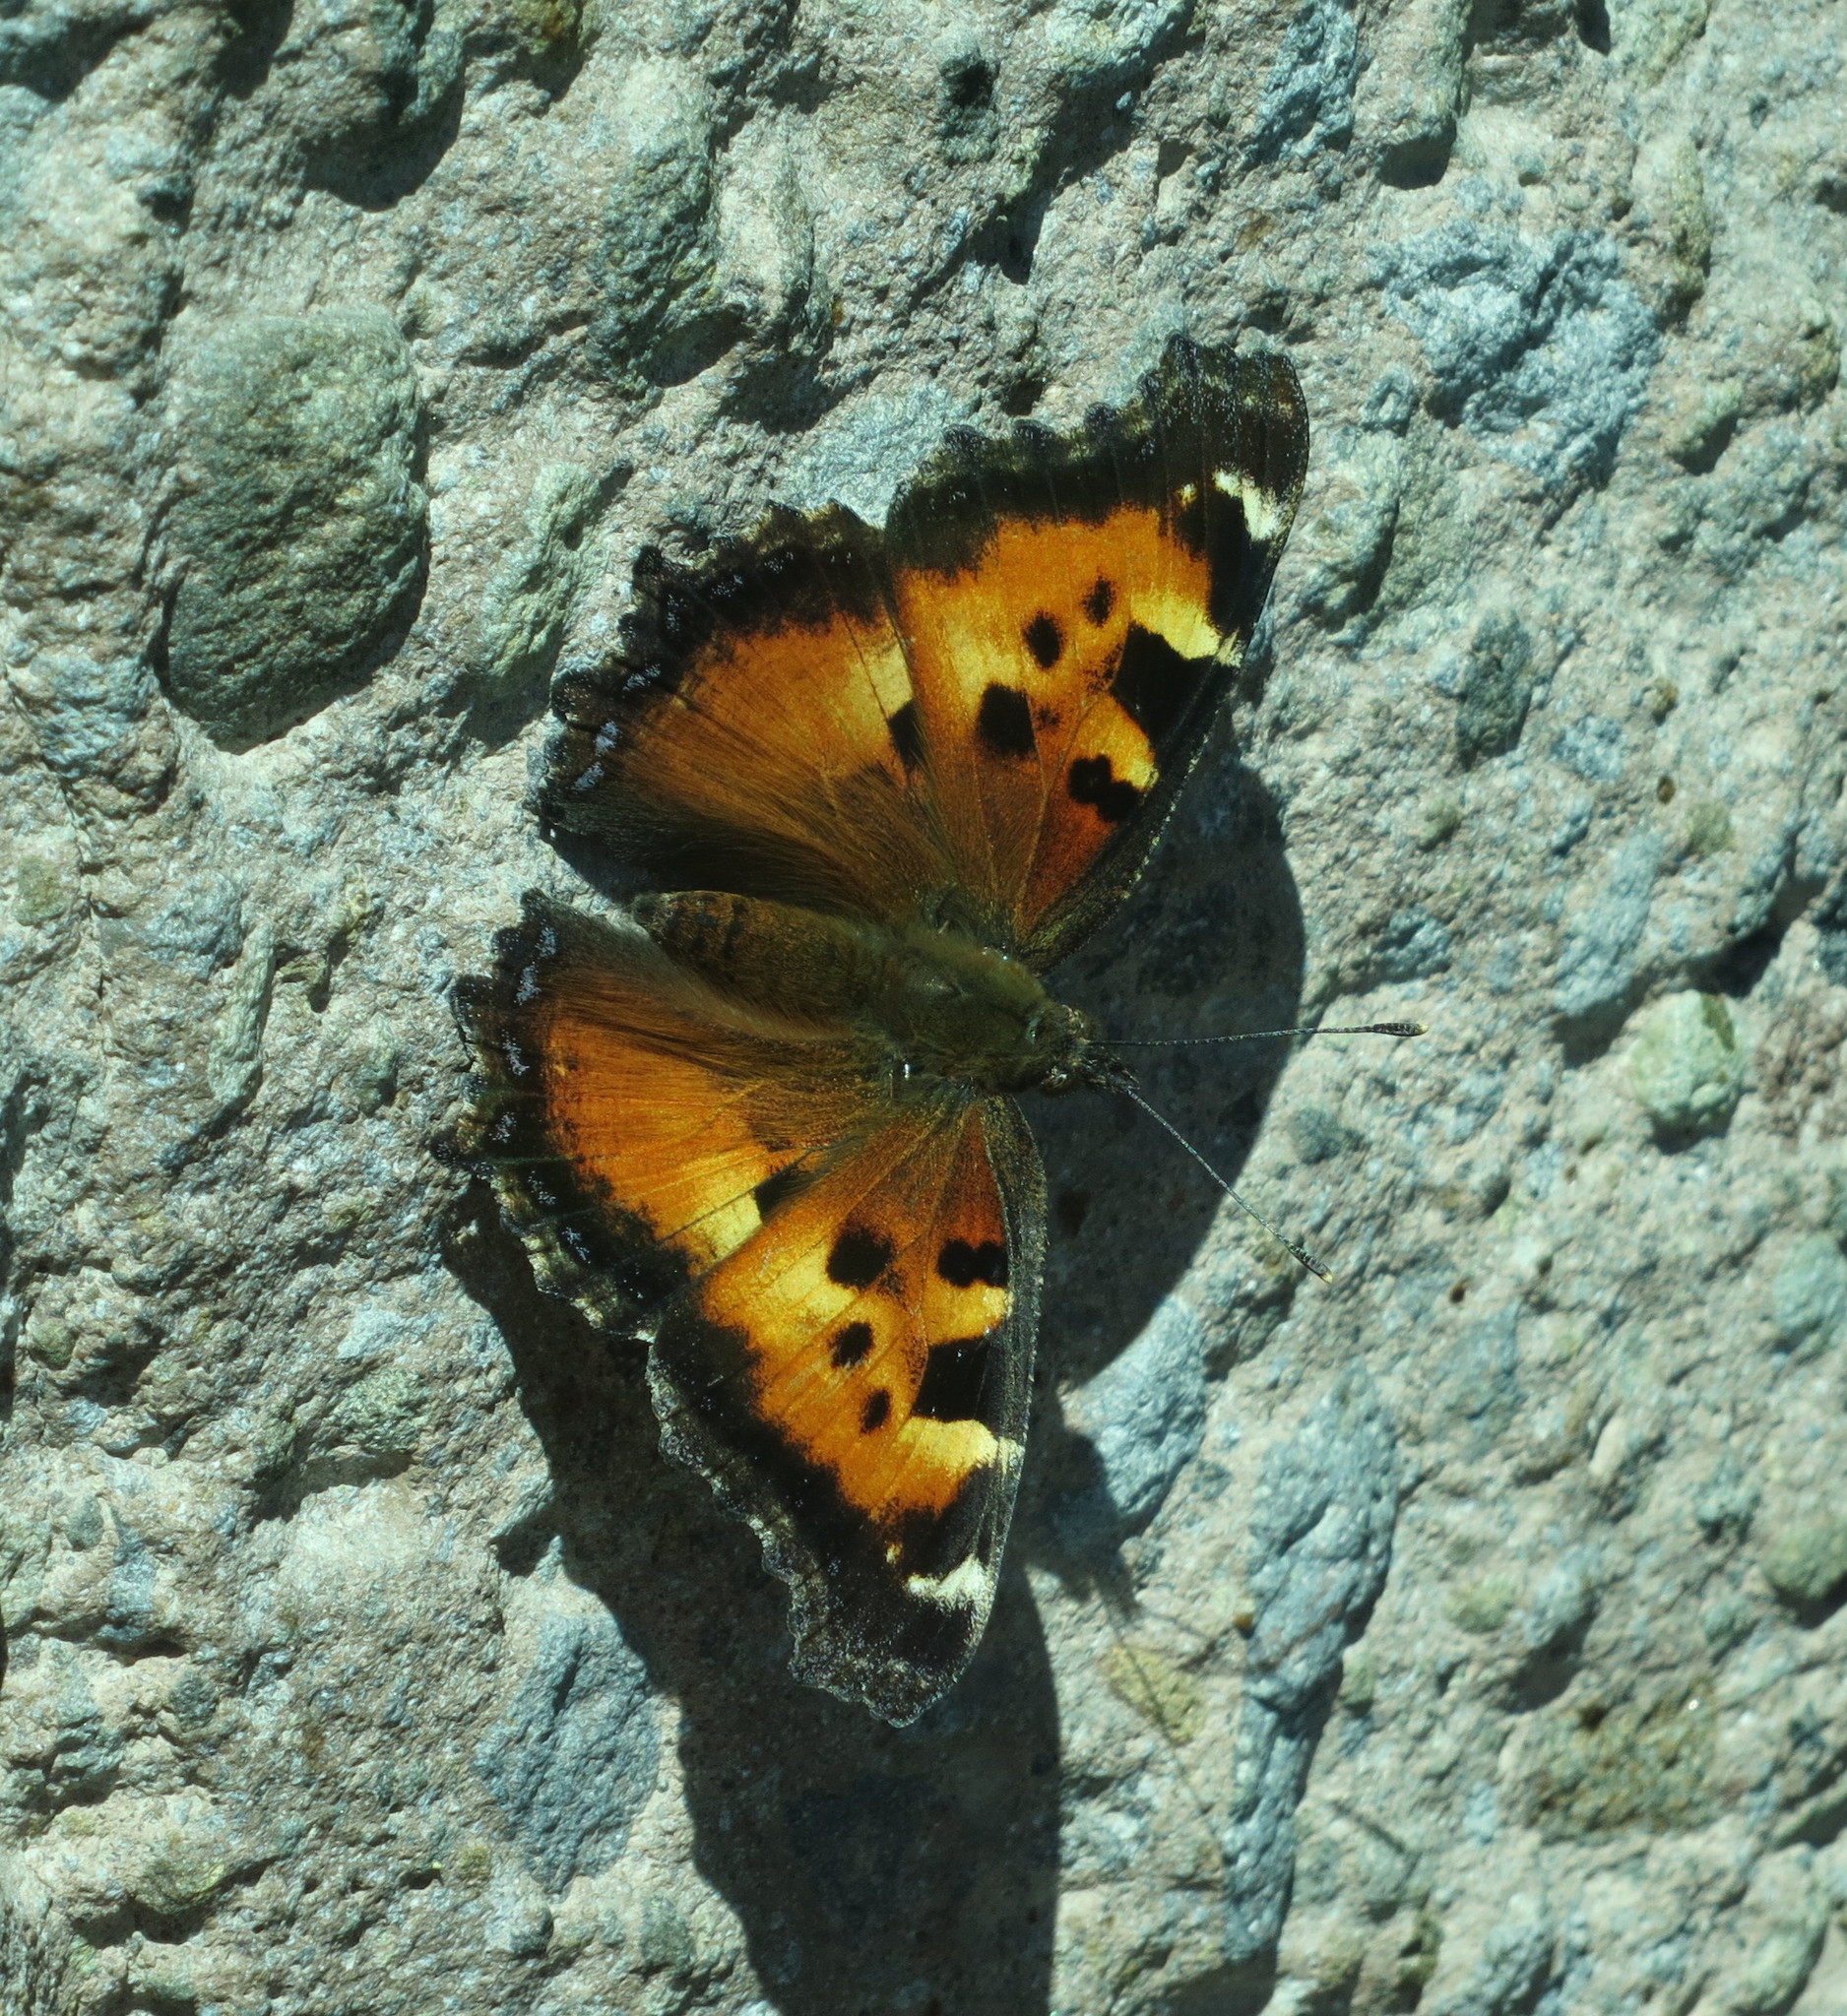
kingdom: Animalia
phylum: Arthropoda
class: Insecta
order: Lepidoptera
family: Nymphalidae
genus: Nymphalis
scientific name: Nymphalis californica
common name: California tortoiseshell
